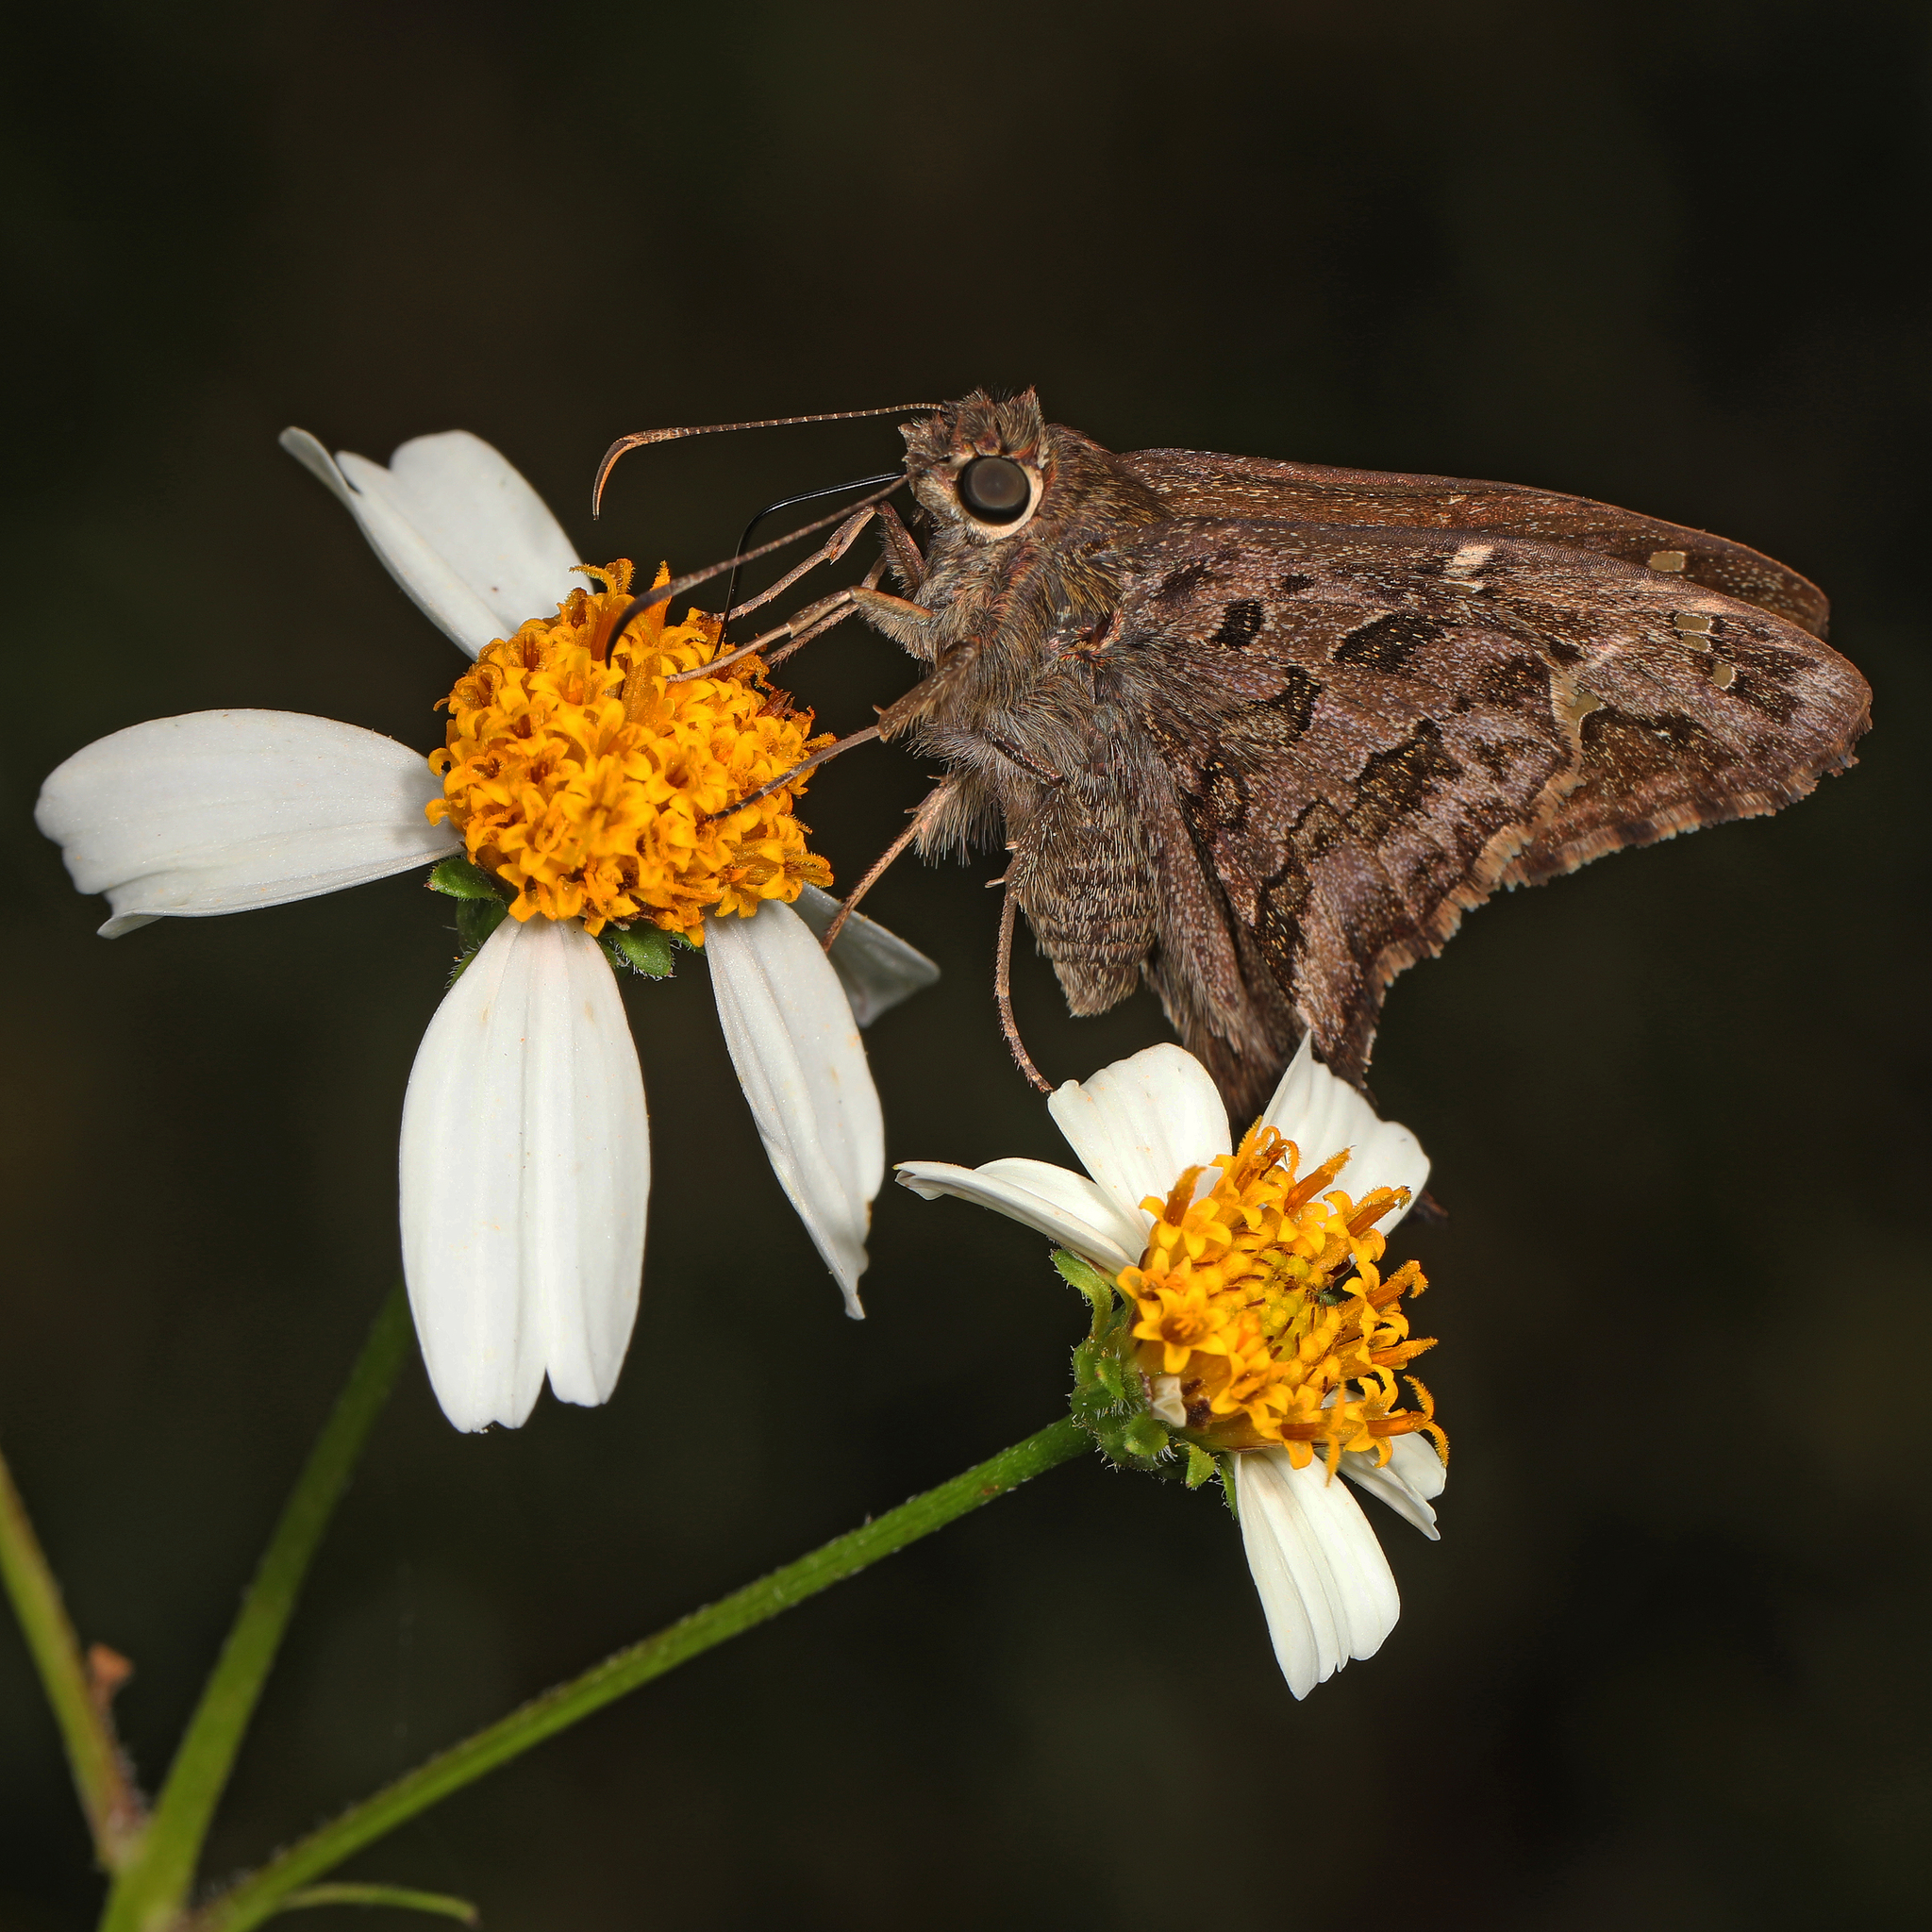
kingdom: Animalia
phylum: Arthropoda
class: Insecta
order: Lepidoptera
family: Hesperiidae
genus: Thorybes
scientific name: Thorybes
